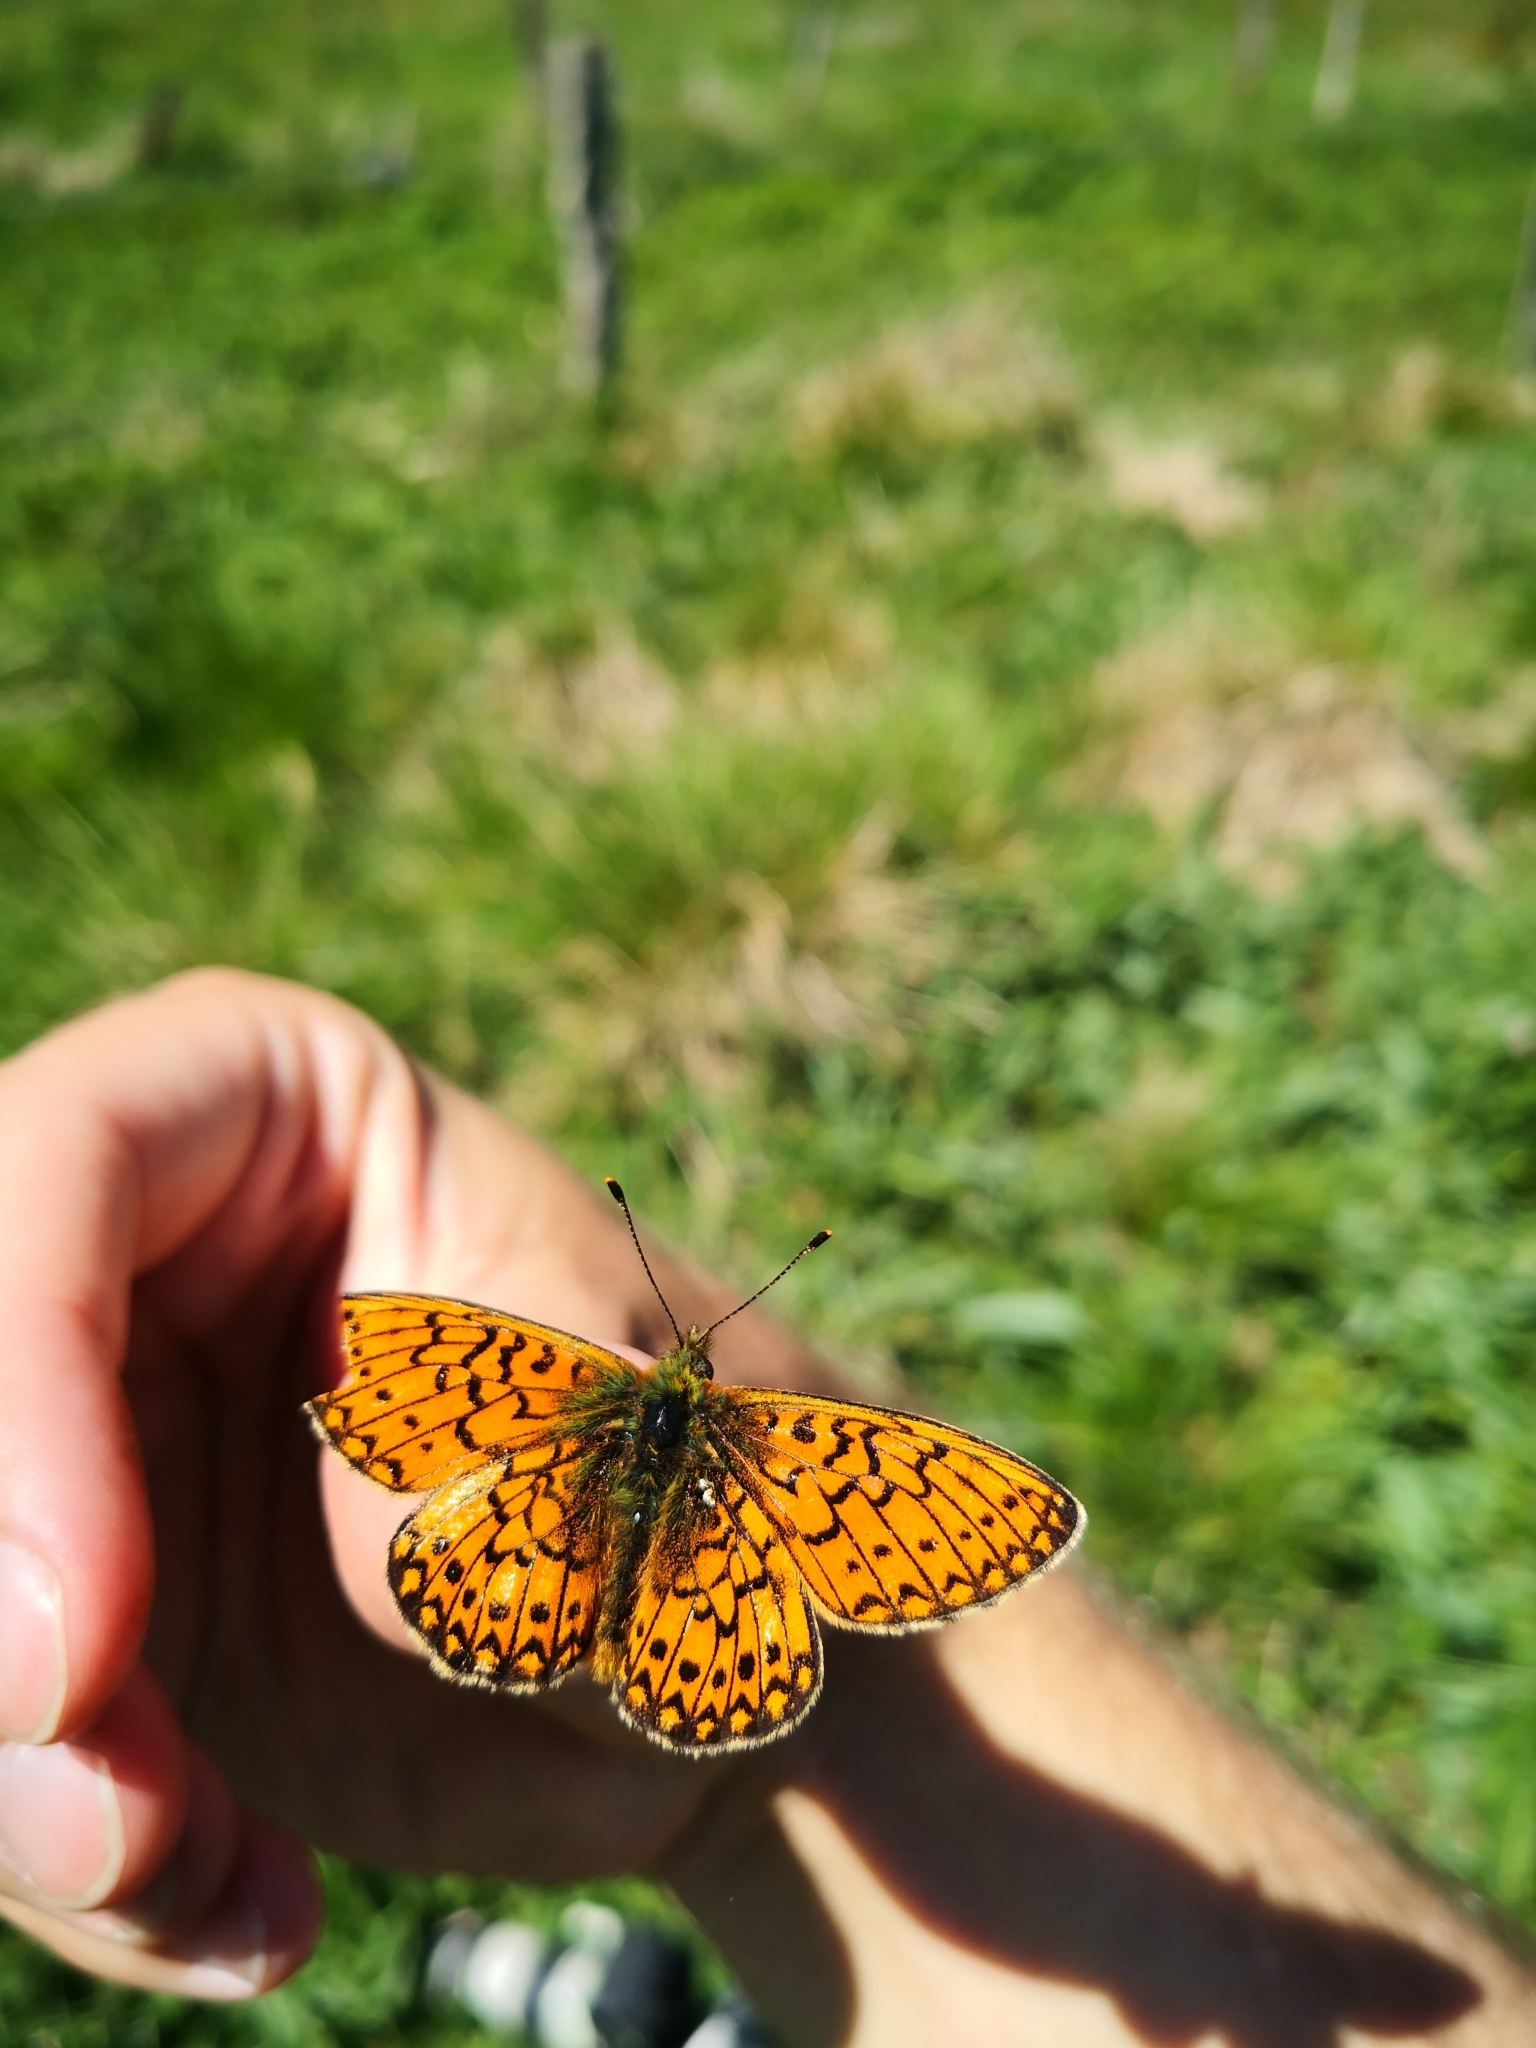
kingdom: Animalia
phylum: Arthropoda
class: Insecta
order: Lepidoptera
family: Nymphalidae
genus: Boloria
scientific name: Boloria eunomia
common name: Bog fritillary
